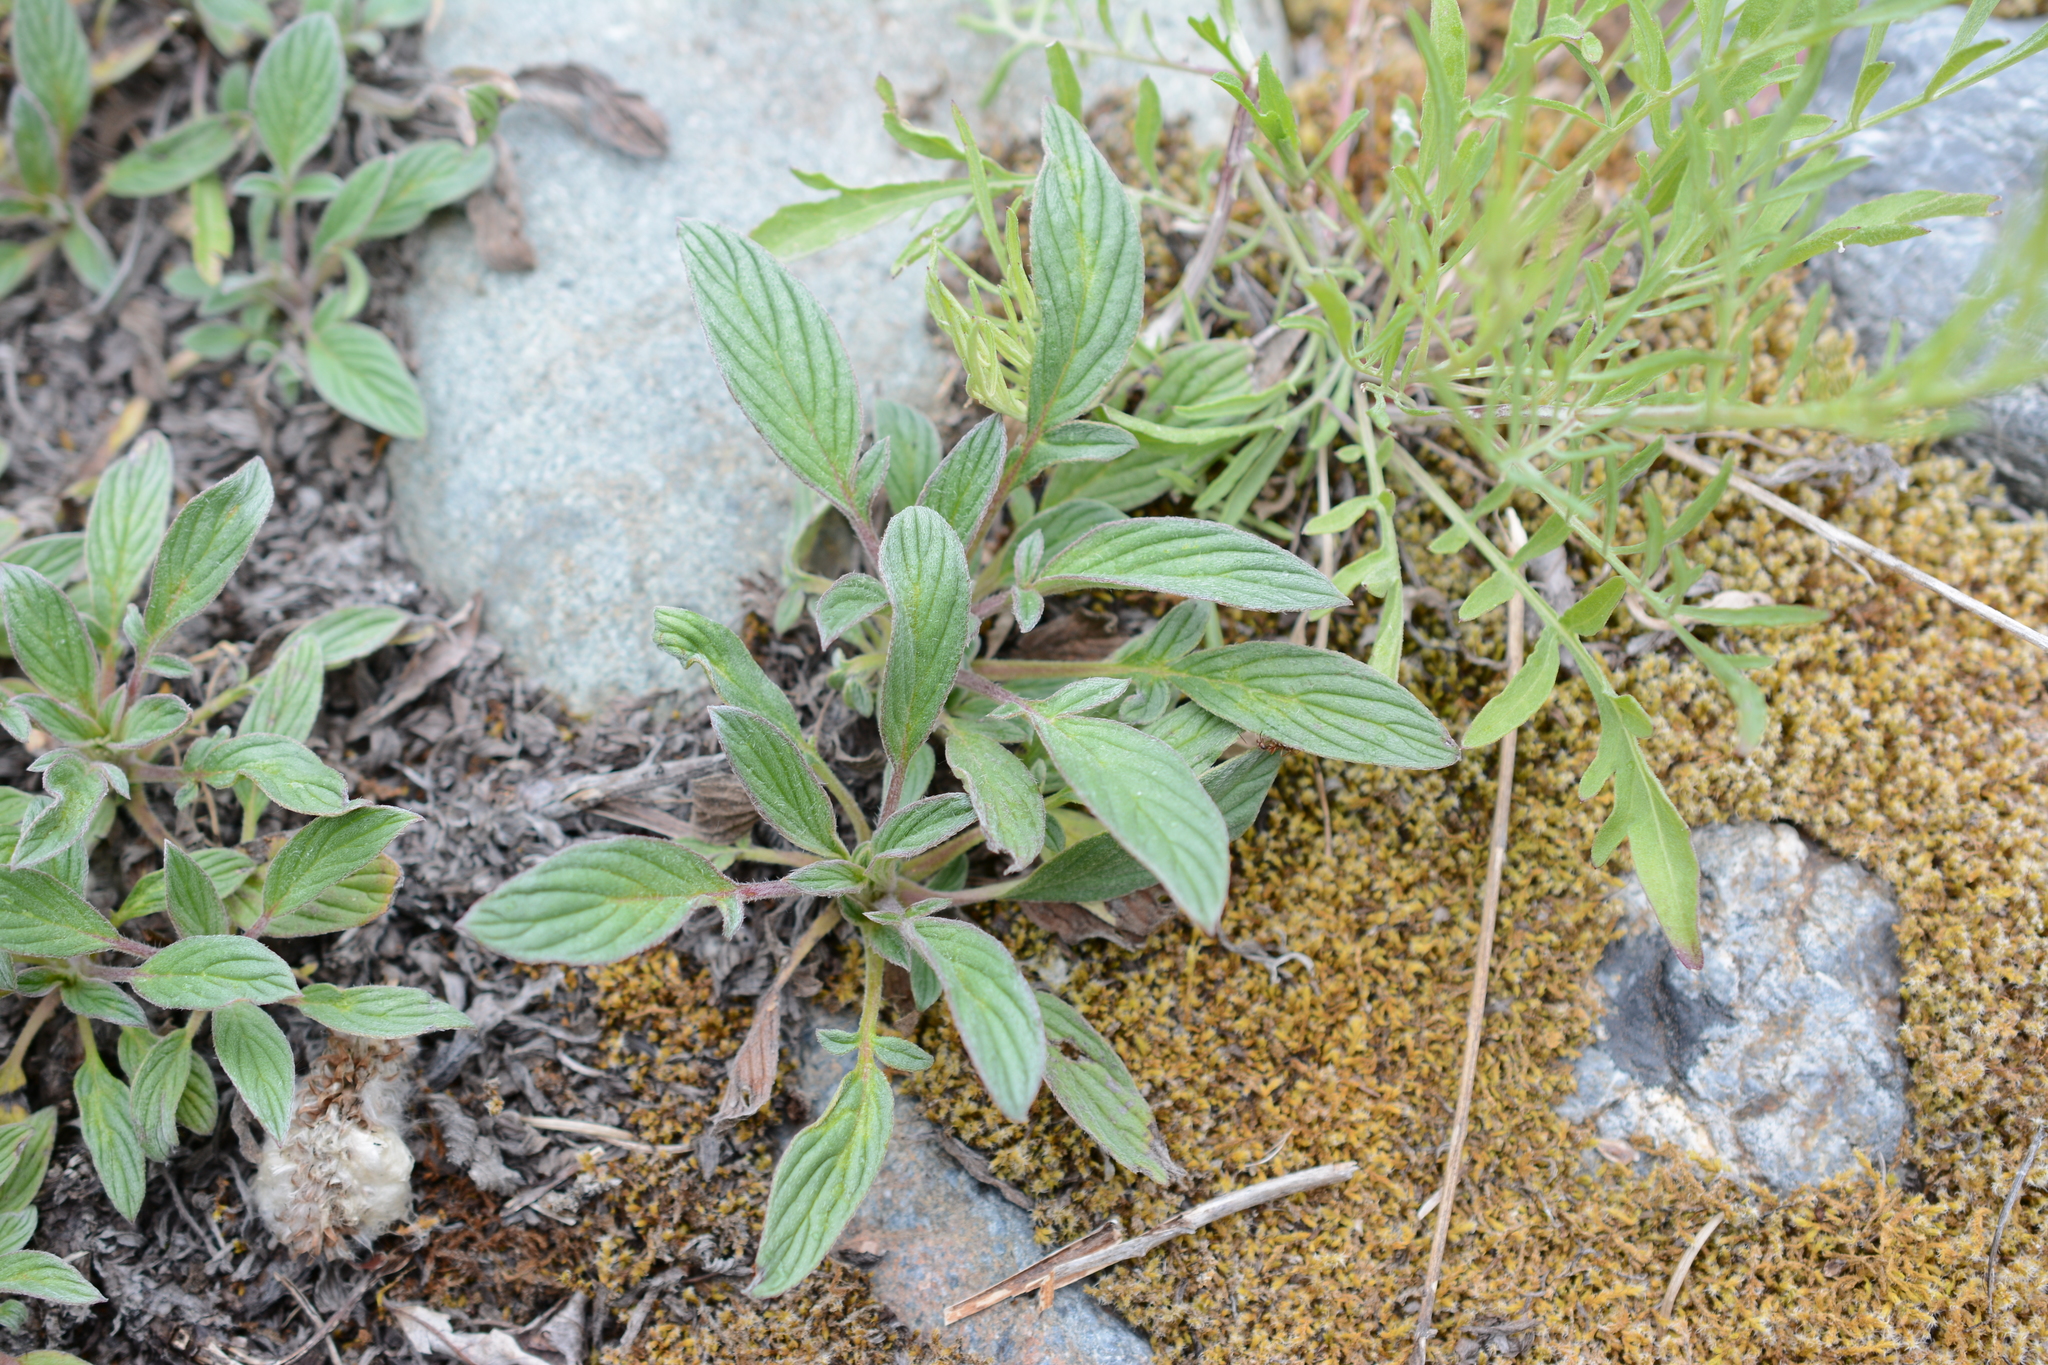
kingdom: Plantae
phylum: Tracheophyta
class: Magnoliopsida
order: Boraginales
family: Hydrophyllaceae
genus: Phacelia
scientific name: Phacelia hastata
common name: Silver-leaved phacelia
